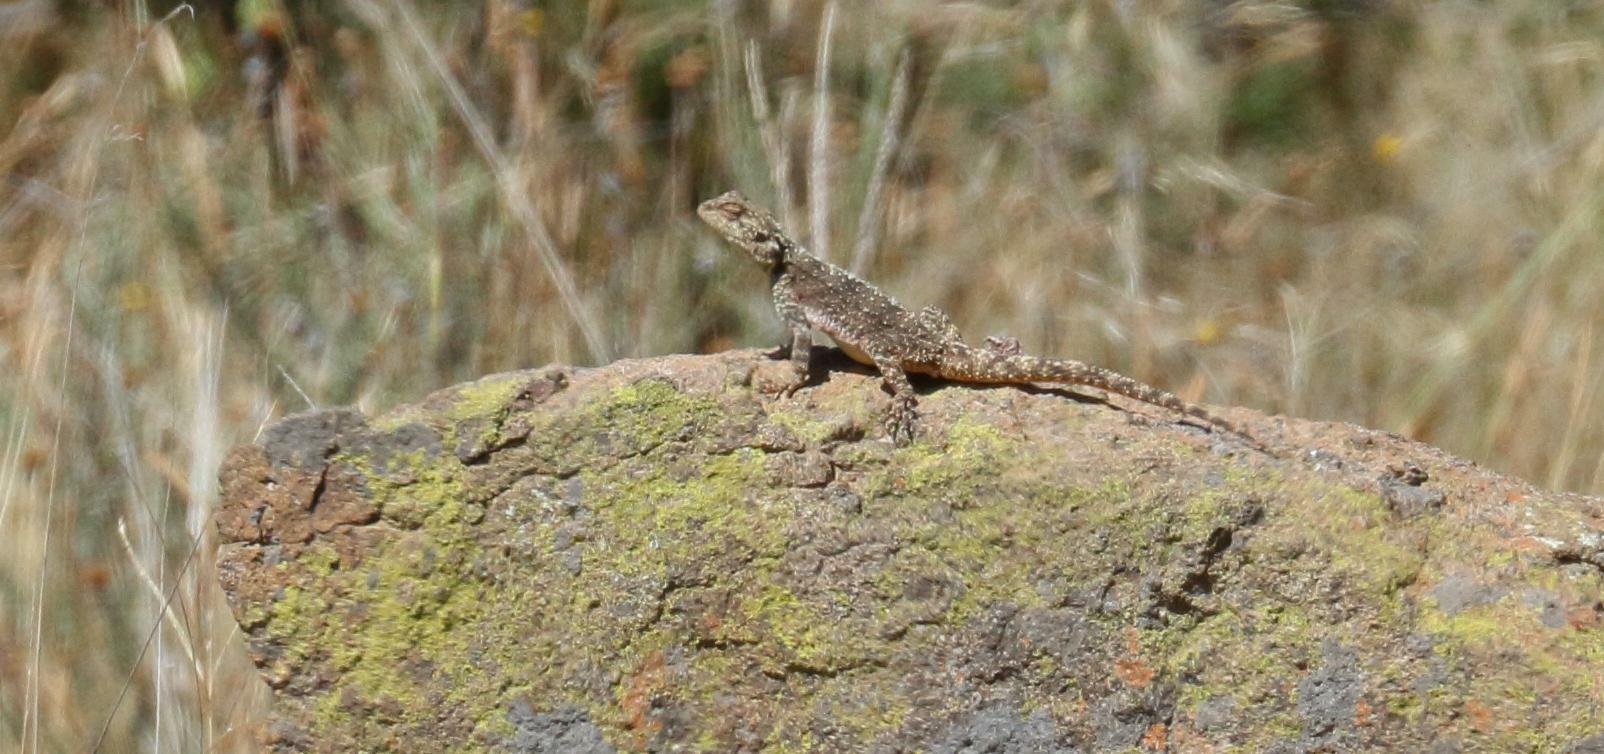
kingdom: Animalia
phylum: Chordata
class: Squamata
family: Agamidae
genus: Agama
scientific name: Agama atra
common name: Southern african rock agama
